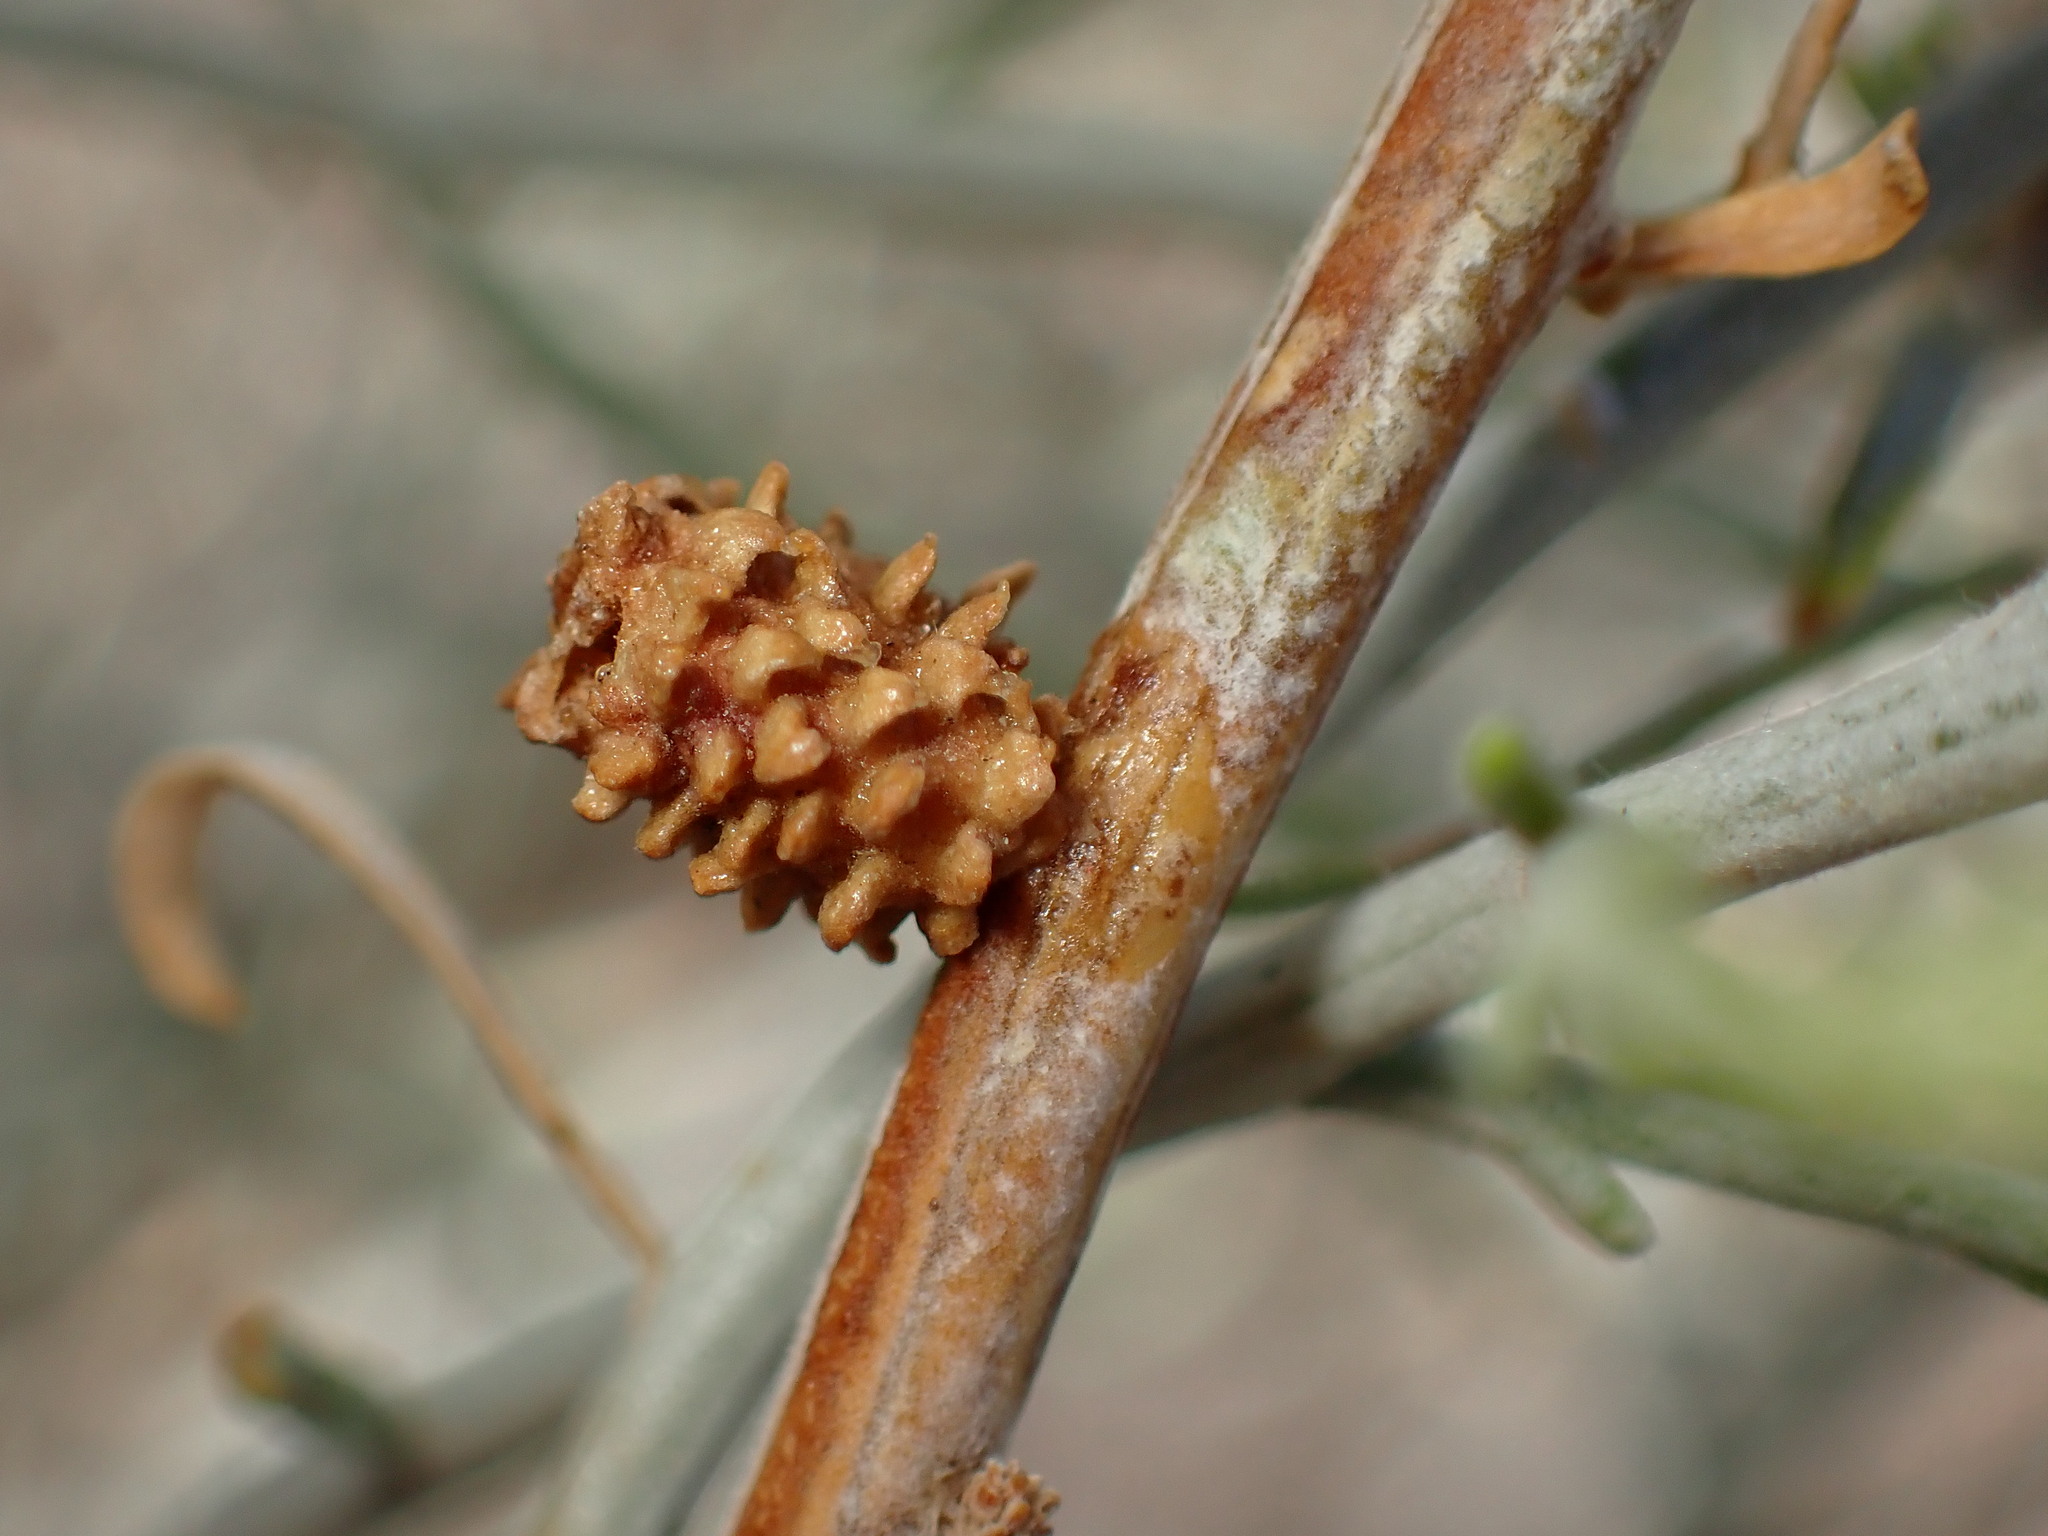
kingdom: Animalia
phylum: Arthropoda
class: Insecta
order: Diptera
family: Cecidomyiidae
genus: Rhopalomyia
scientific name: Rhopalomyia utahensis
